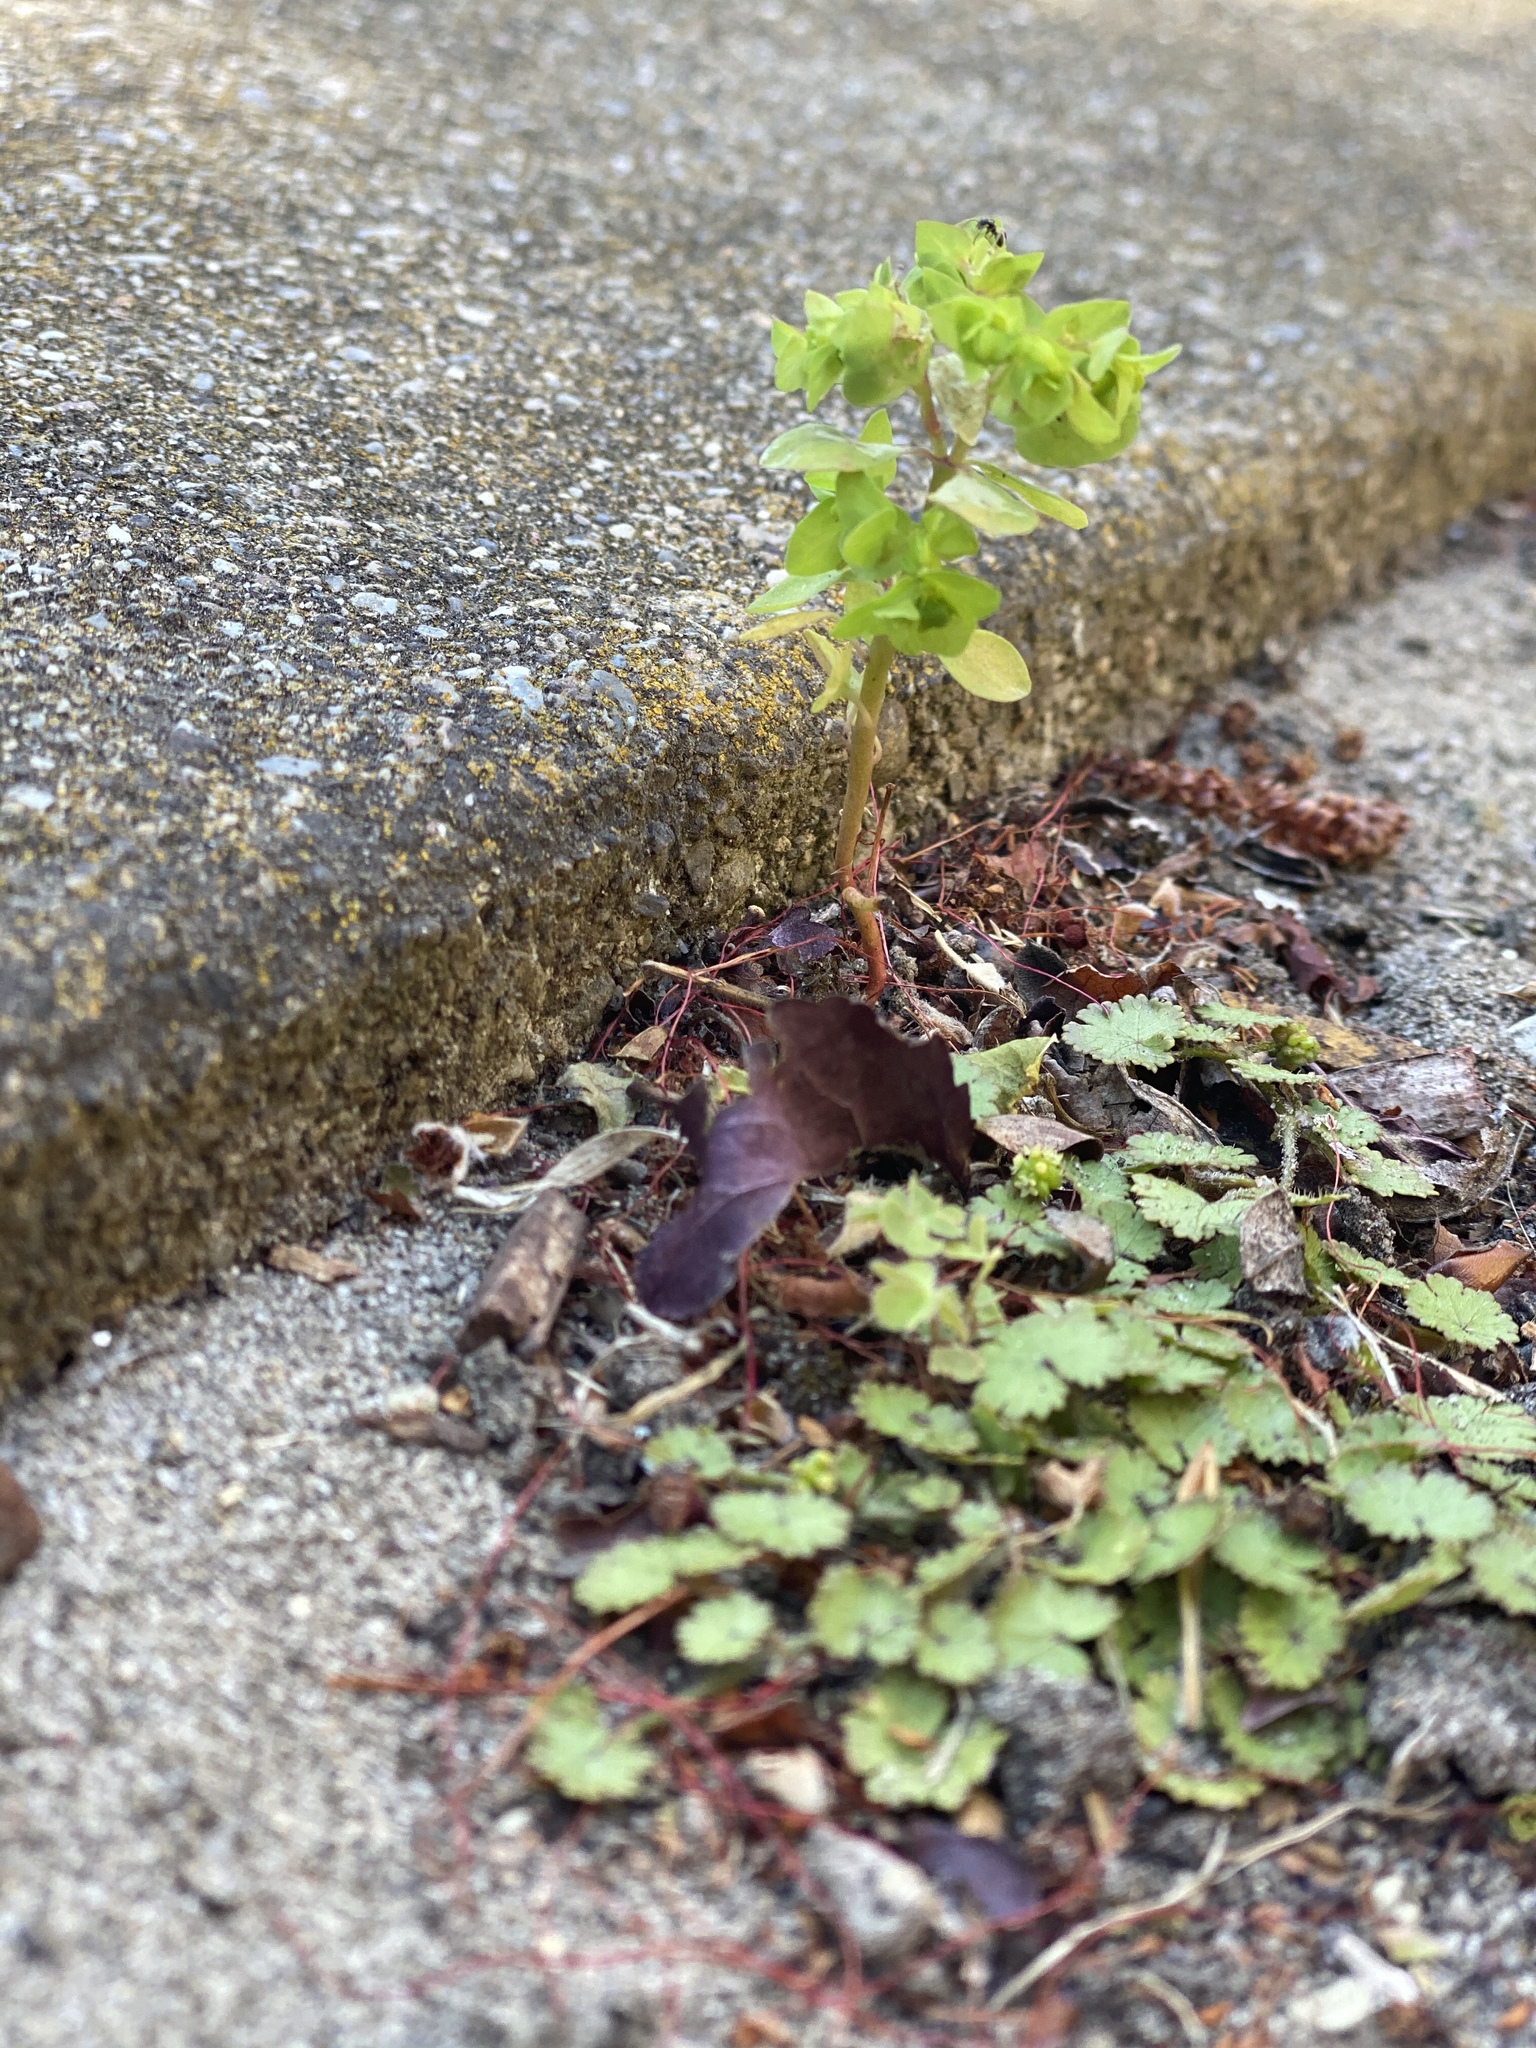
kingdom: Plantae
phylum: Tracheophyta
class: Magnoliopsida
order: Malpighiales
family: Euphorbiaceae
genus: Euphorbia
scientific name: Euphorbia peplus
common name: Petty spurge
